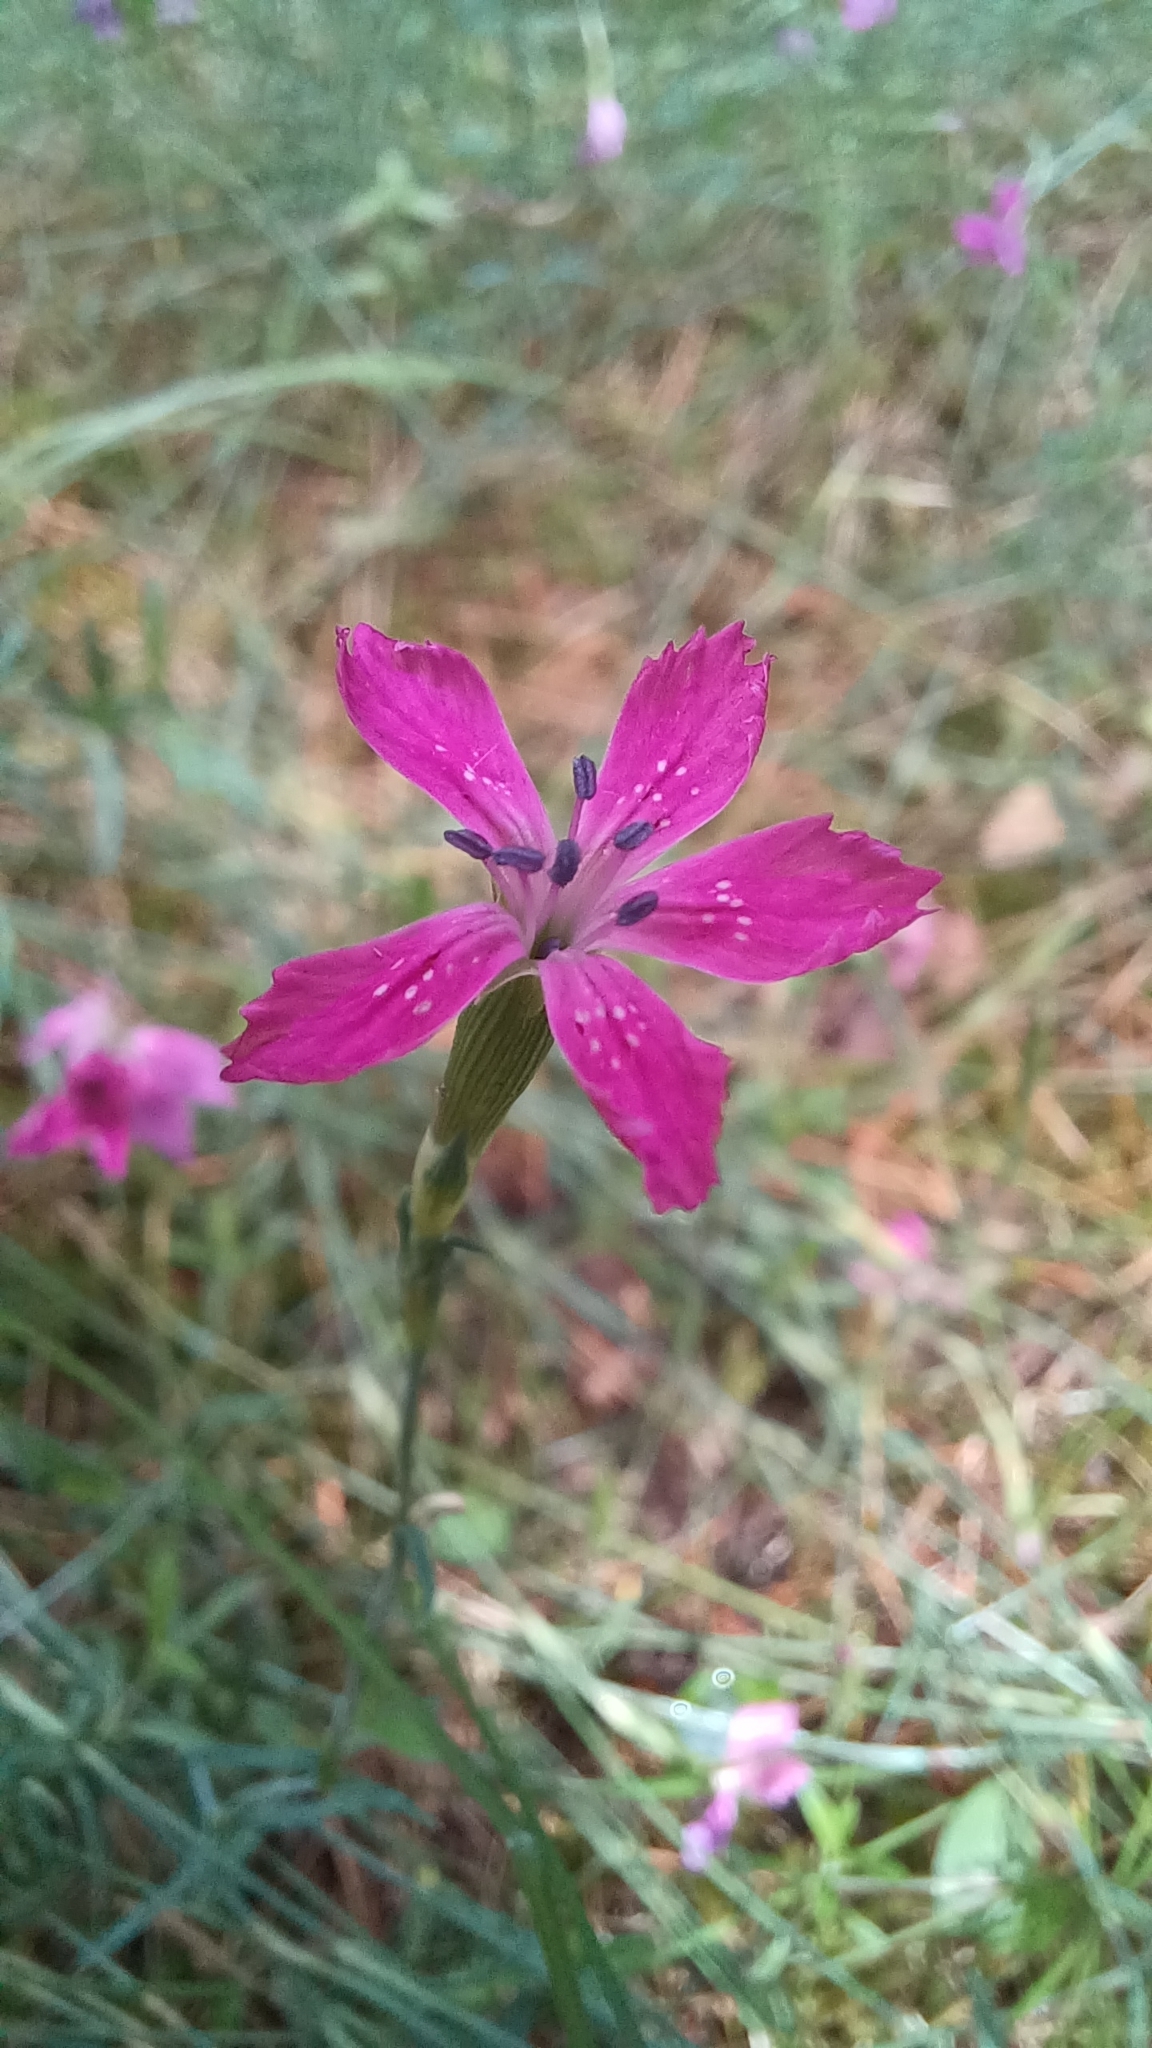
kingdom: Plantae
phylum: Tracheophyta
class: Magnoliopsida
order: Caryophyllales
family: Caryophyllaceae
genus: Dianthus
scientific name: Dianthus deltoides
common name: Maiden pink
